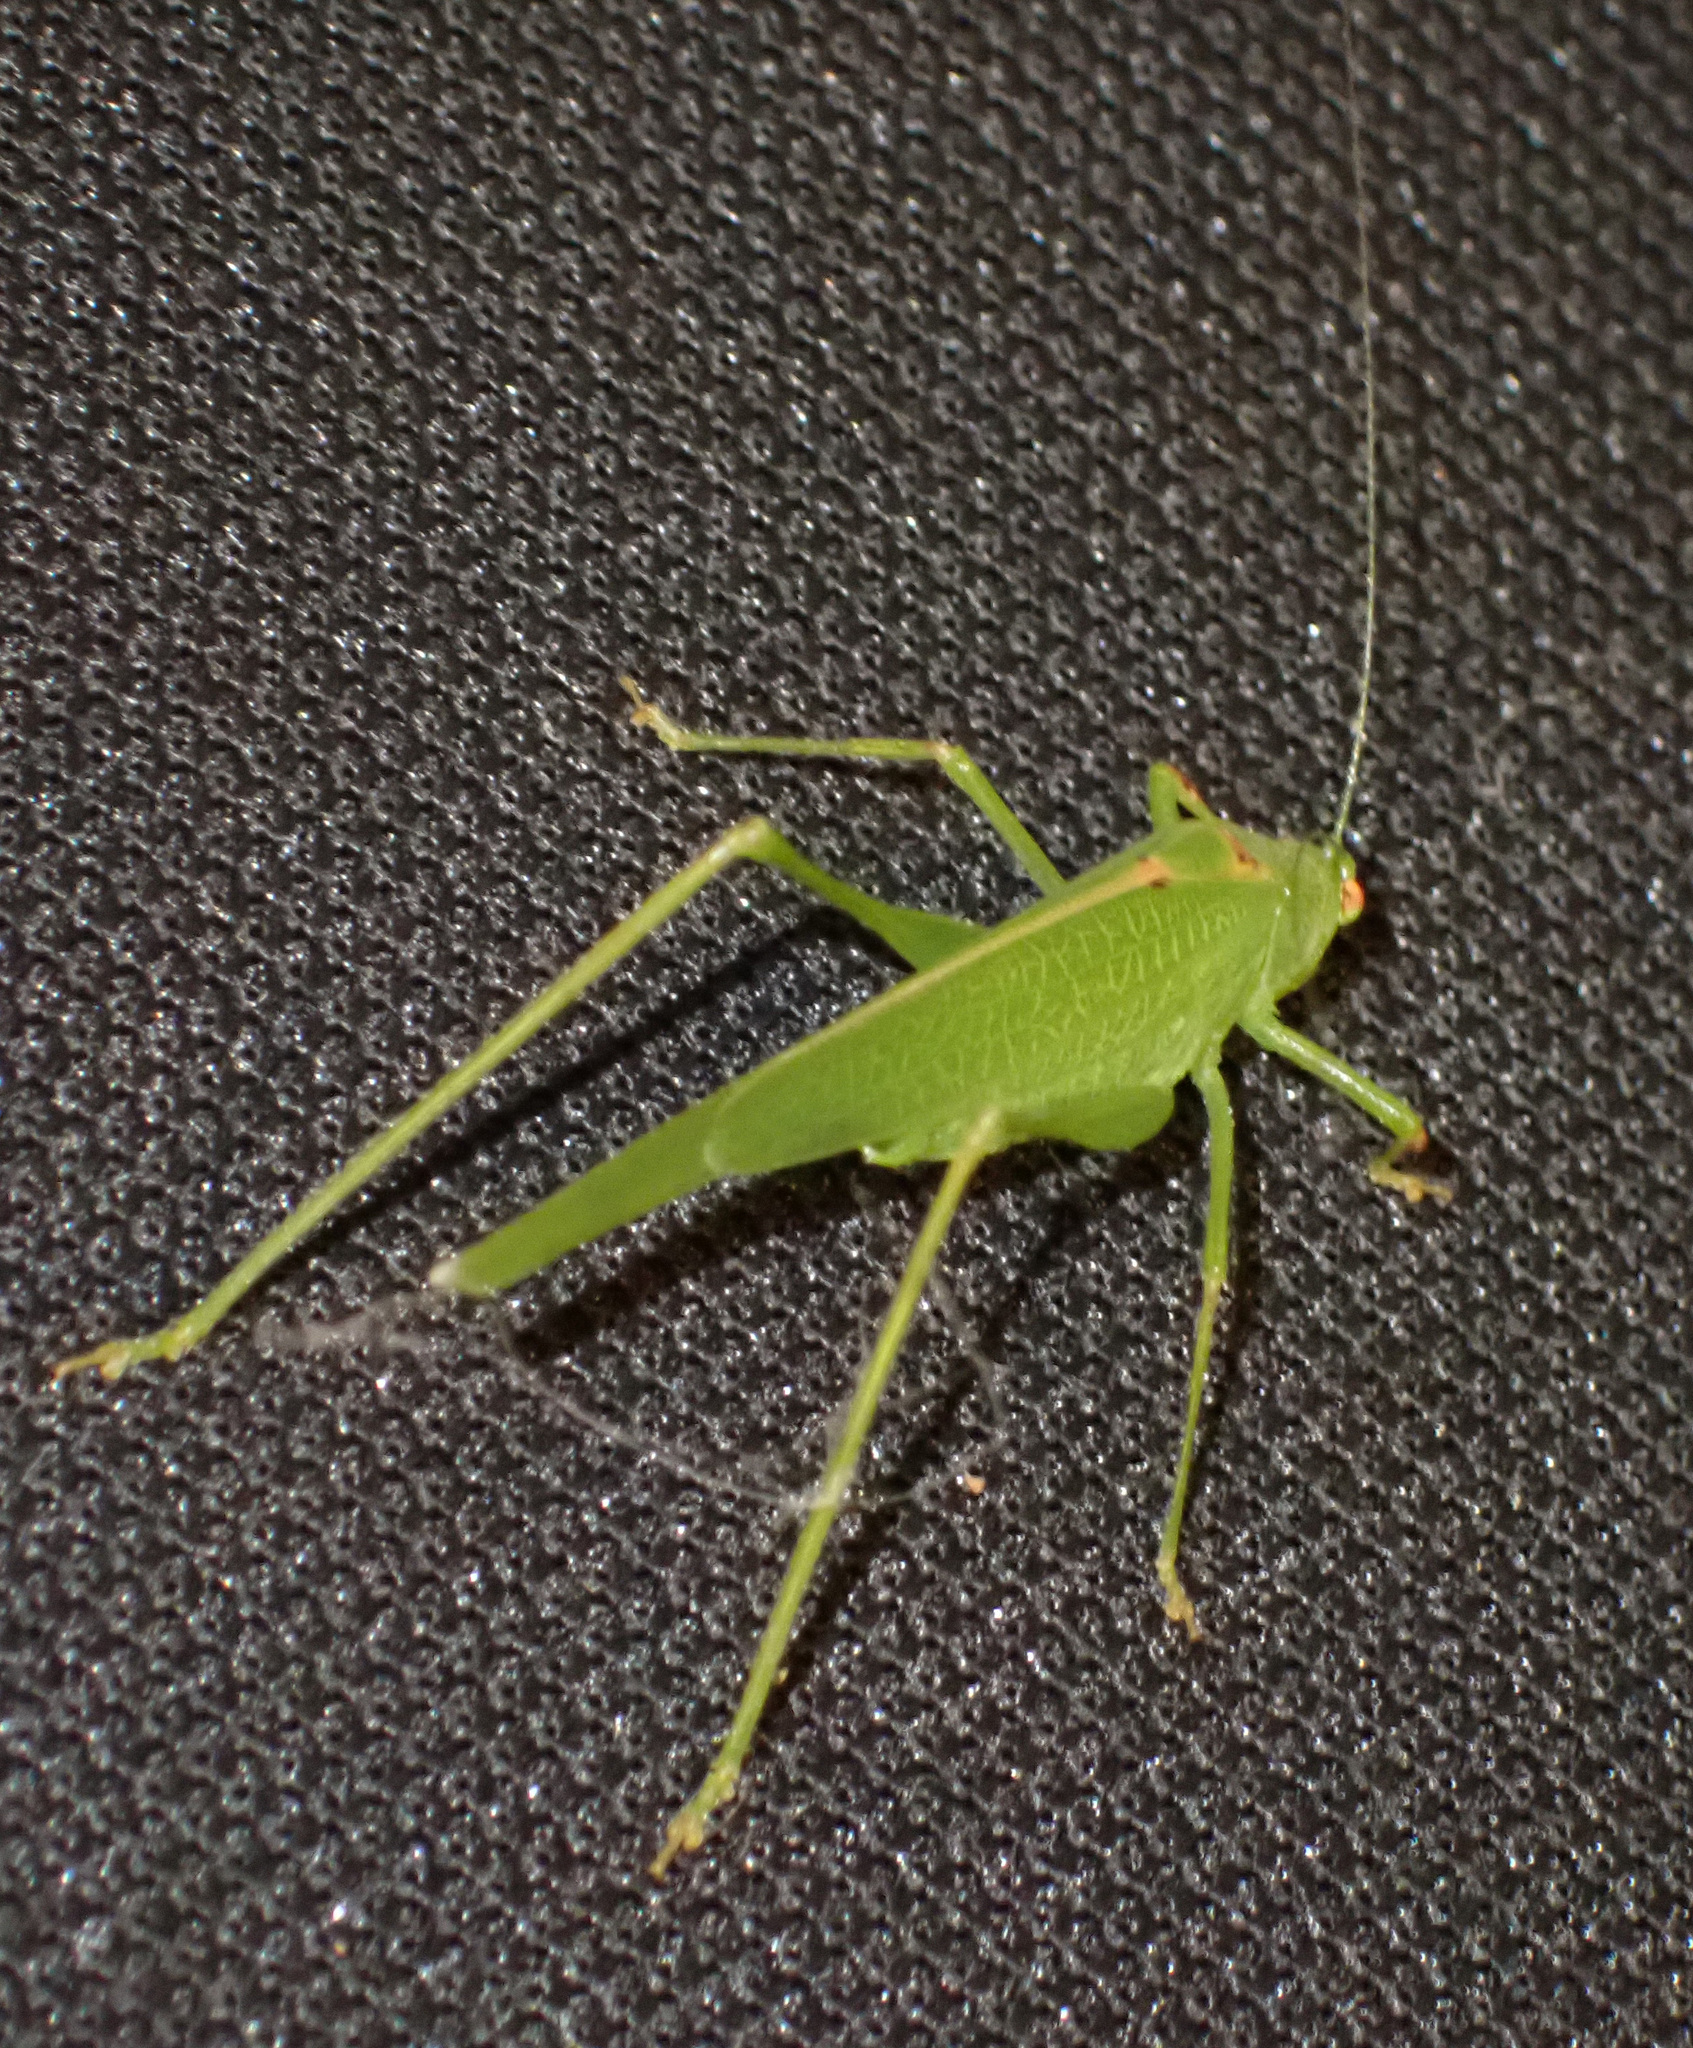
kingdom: Animalia
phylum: Arthropoda
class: Insecta
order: Orthoptera
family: Tettigoniidae
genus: Phaneroptera
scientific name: Phaneroptera nana
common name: Southern sickle bush-cricket
